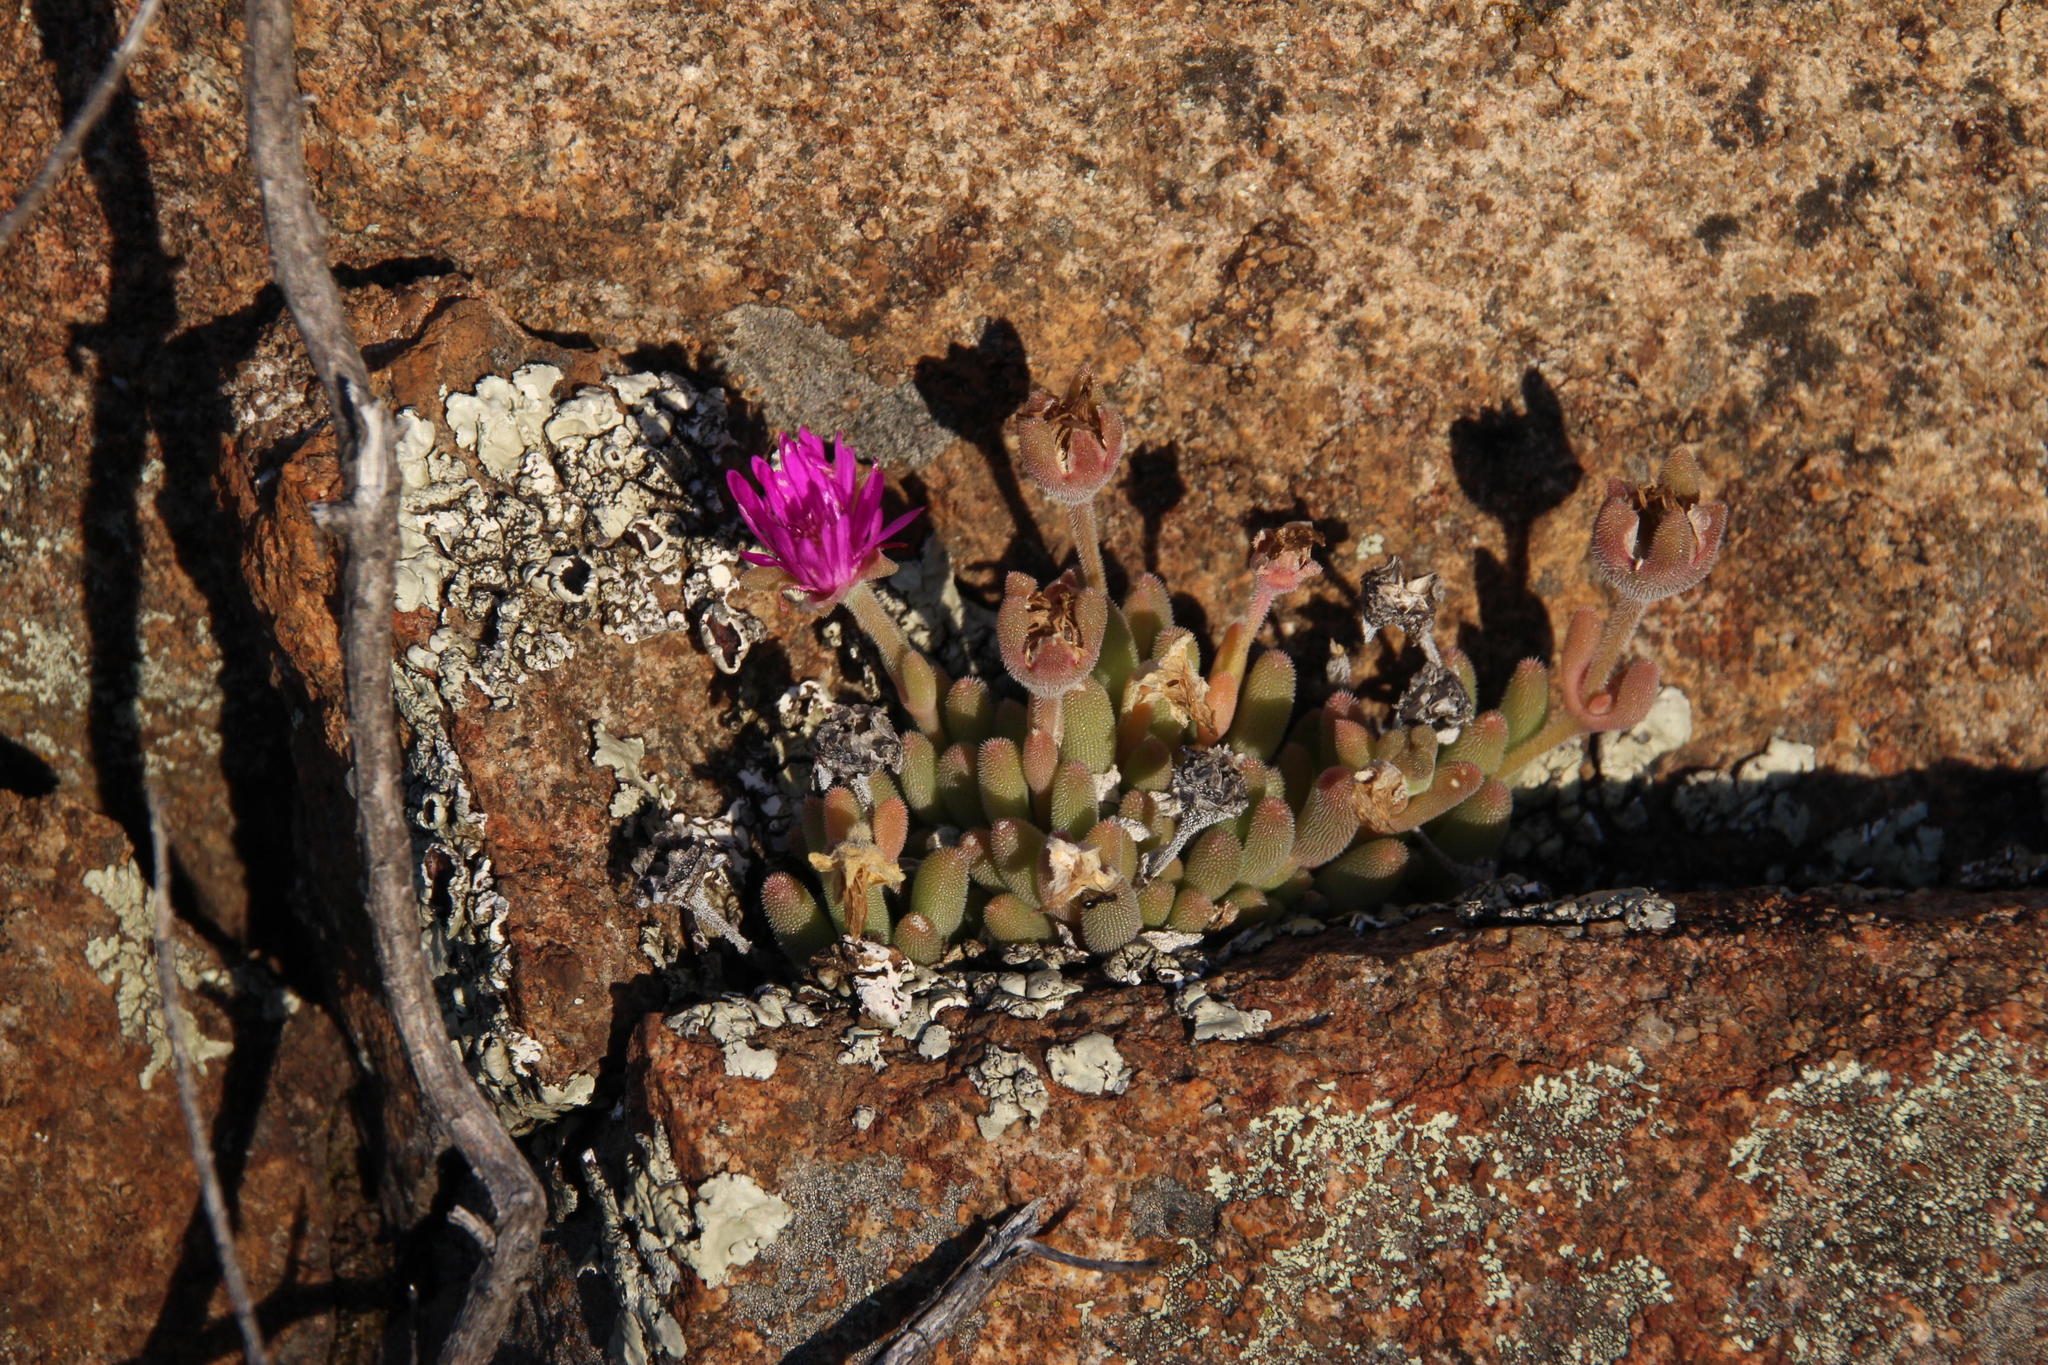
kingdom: Plantae
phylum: Tracheophyta
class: Magnoliopsida
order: Caryophyllales
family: Aizoaceae
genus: Delosperma
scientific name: Delosperma lootsbergense
